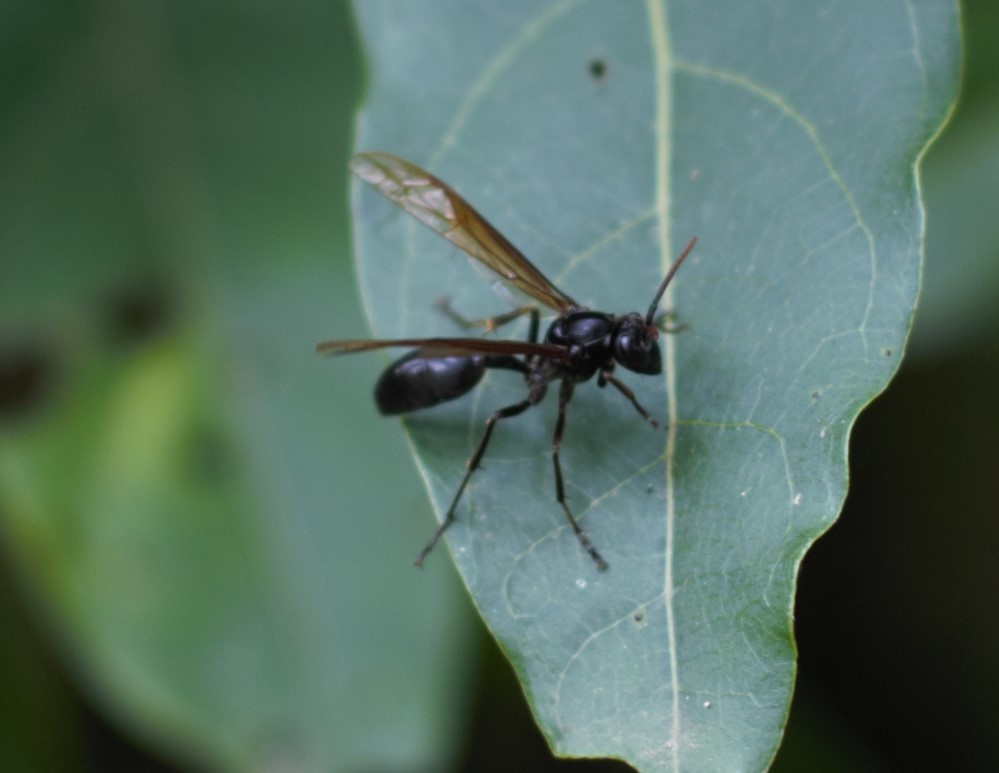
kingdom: Animalia
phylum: Arthropoda
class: Insecta
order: Hymenoptera
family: Vespidae
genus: Agelaia
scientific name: Agelaia angulata
